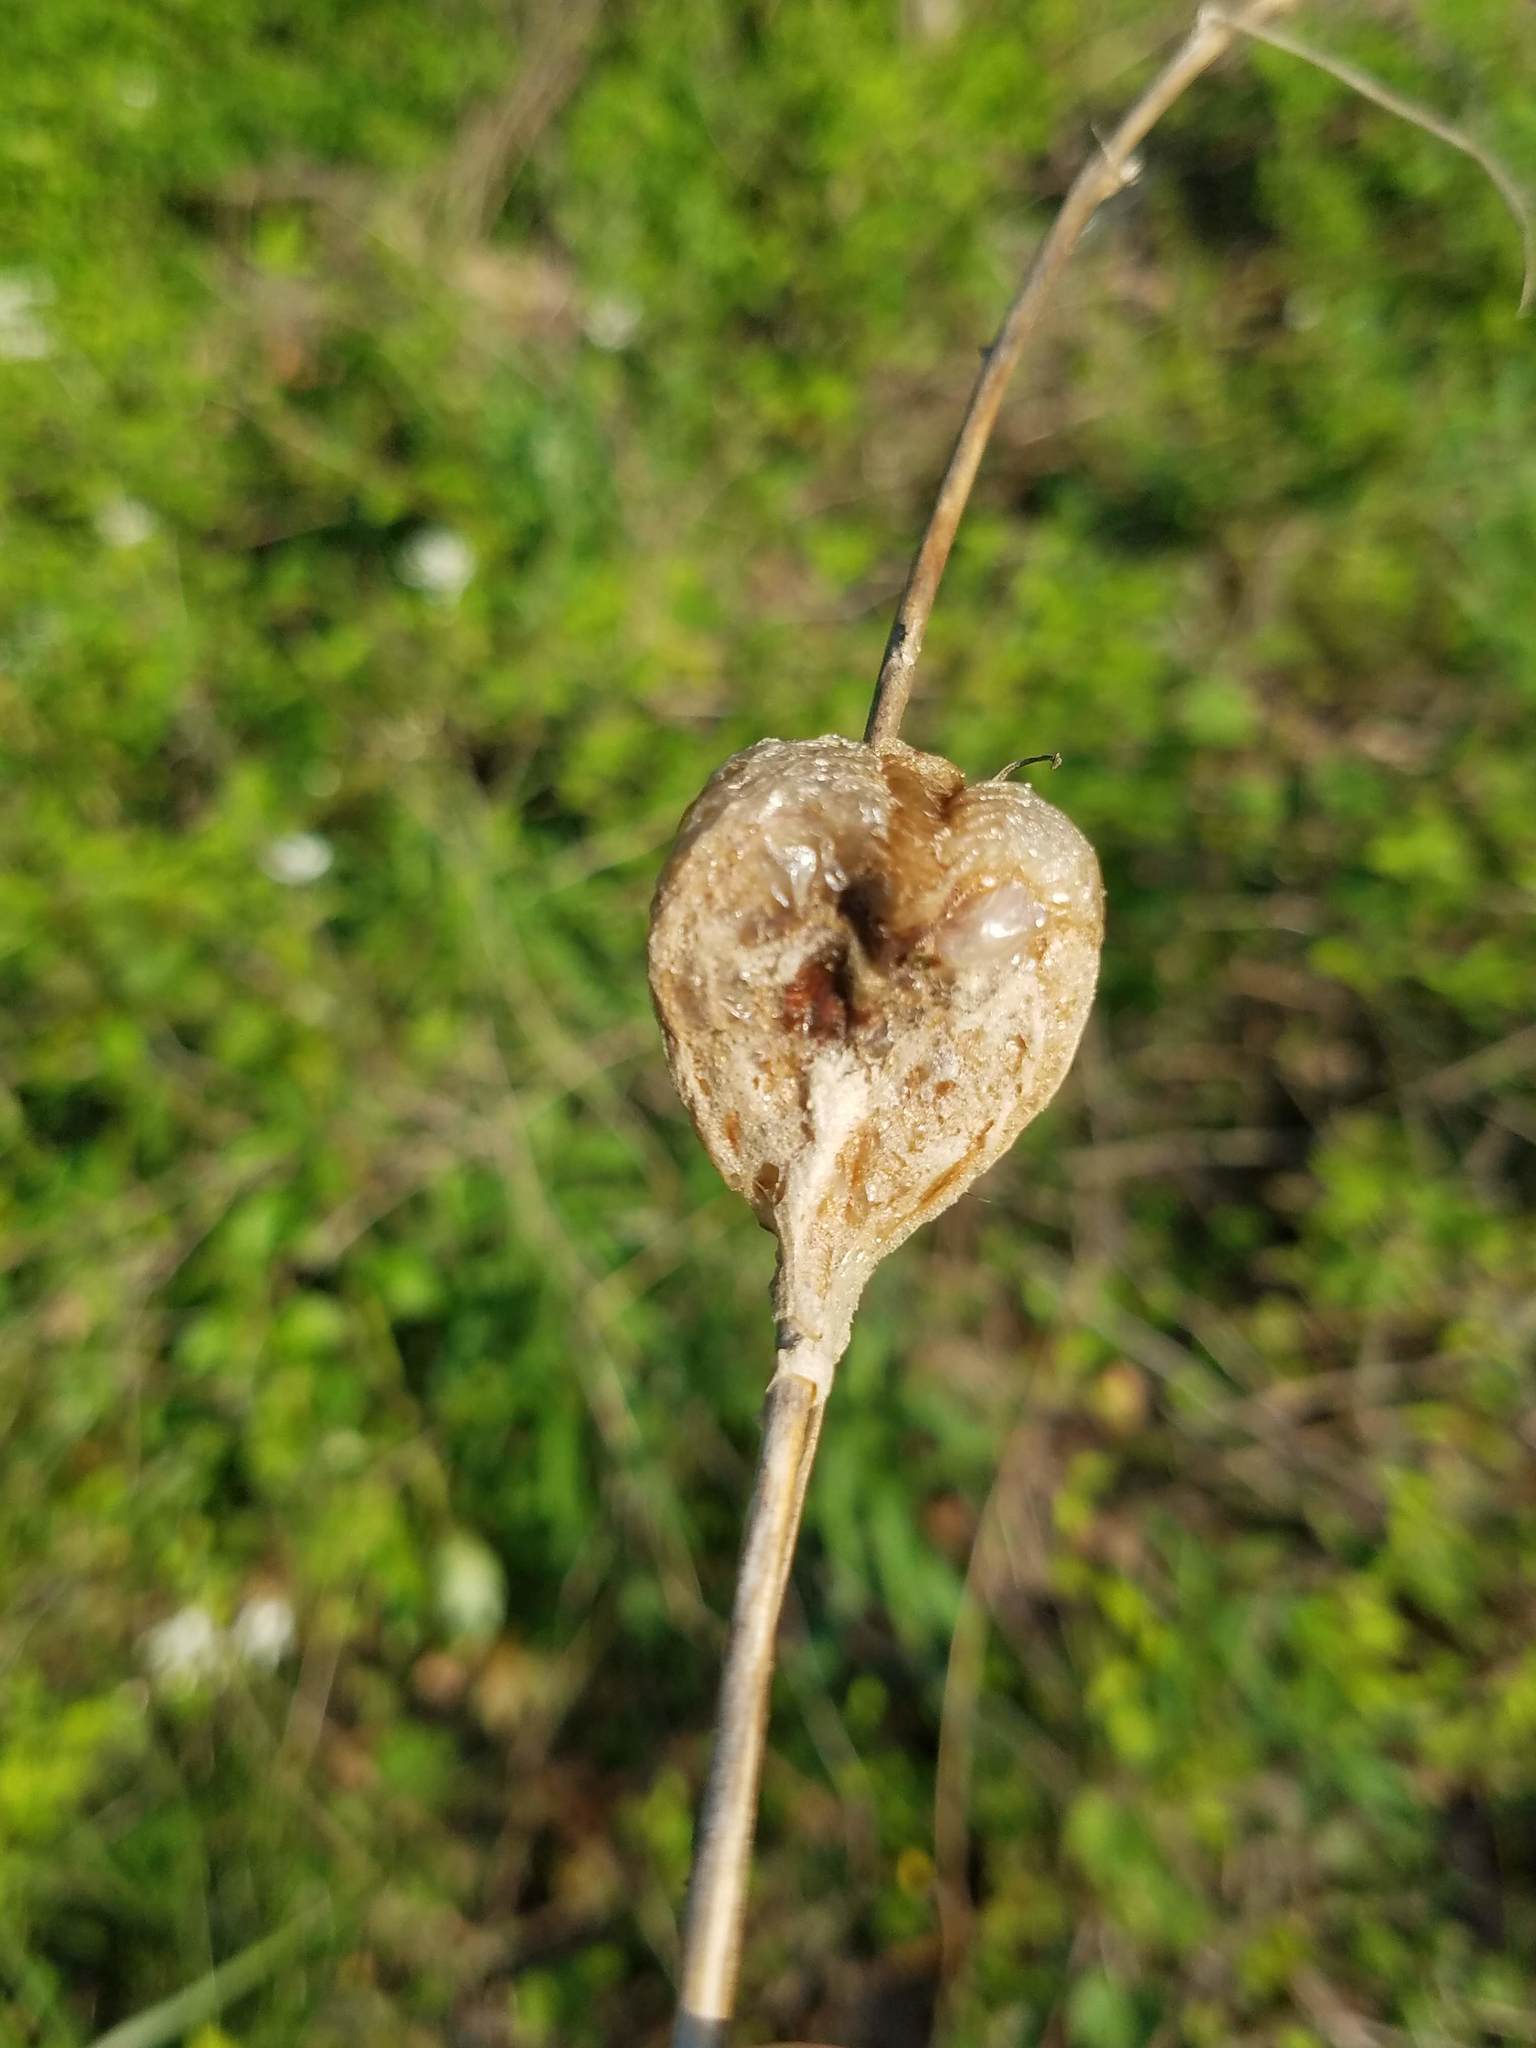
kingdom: Animalia
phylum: Arthropoda
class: Insecta
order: Mantodea
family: Mantidae
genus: Tenodera
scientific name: Tenodera sinensis
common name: Chinese mantis
